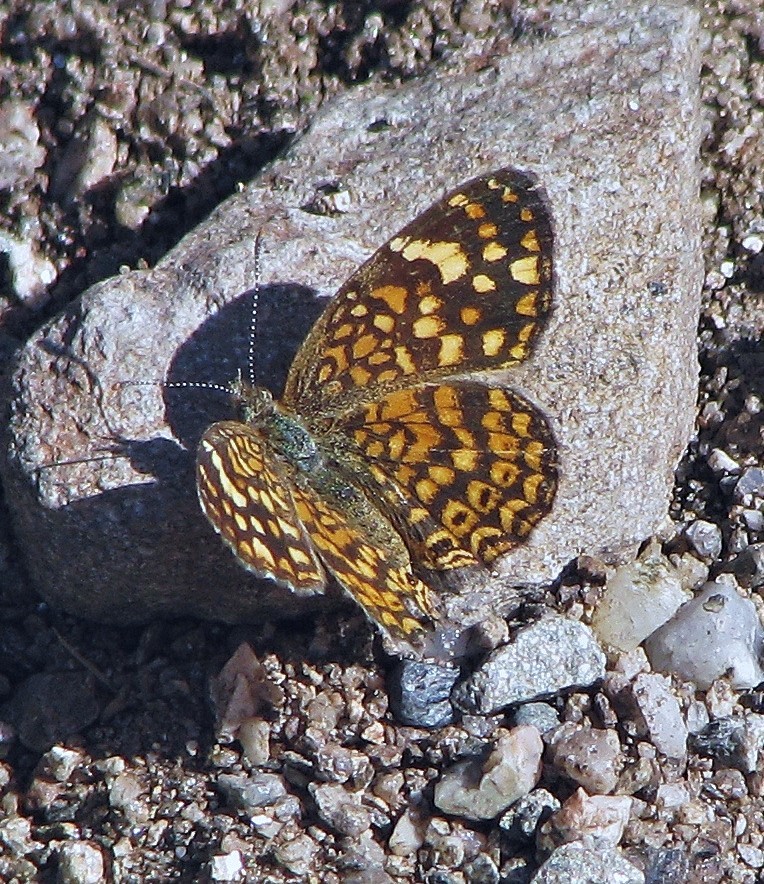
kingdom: Animalia
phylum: Arthropoda
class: Insecta
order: Lepidoptera
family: Nymphalidae
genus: Phystis
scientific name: Phystis simois
